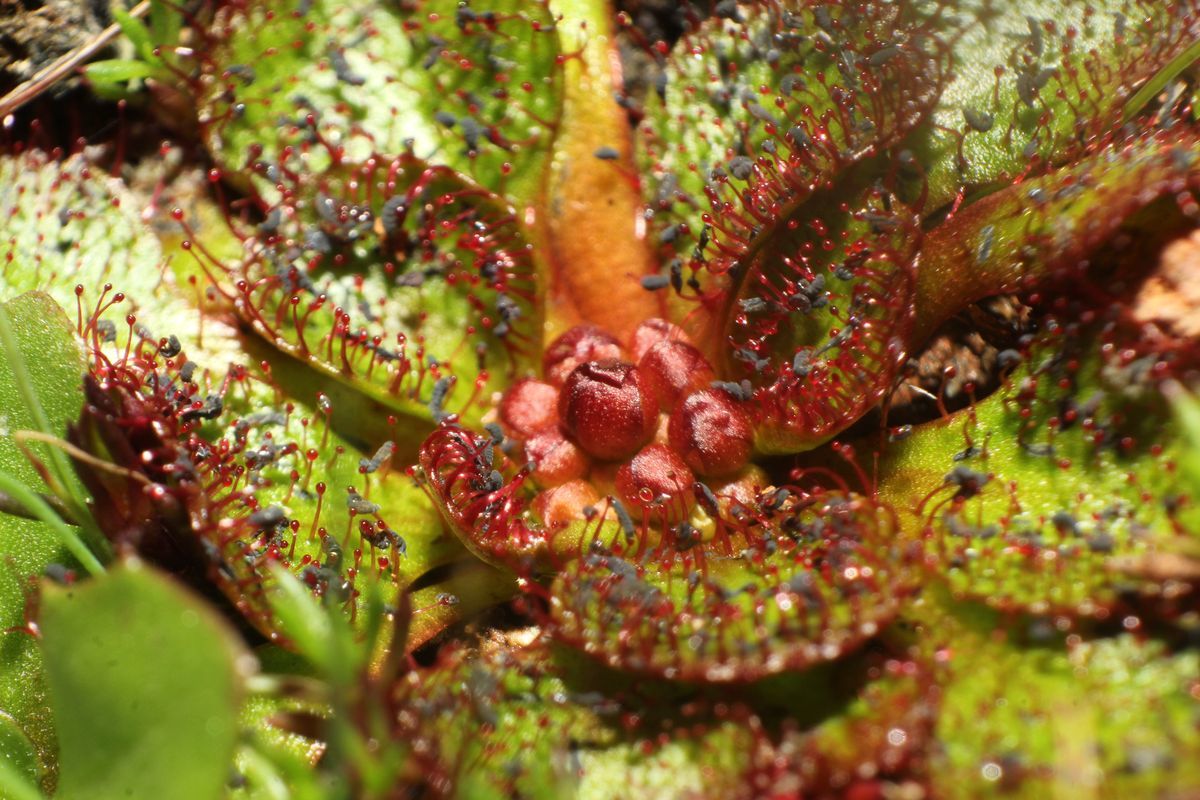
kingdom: Plantae
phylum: Tracheophyta
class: Magnoliopsida
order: Caryophyllales
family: Droseraceae
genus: Drosera
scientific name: Drosera lowriei
